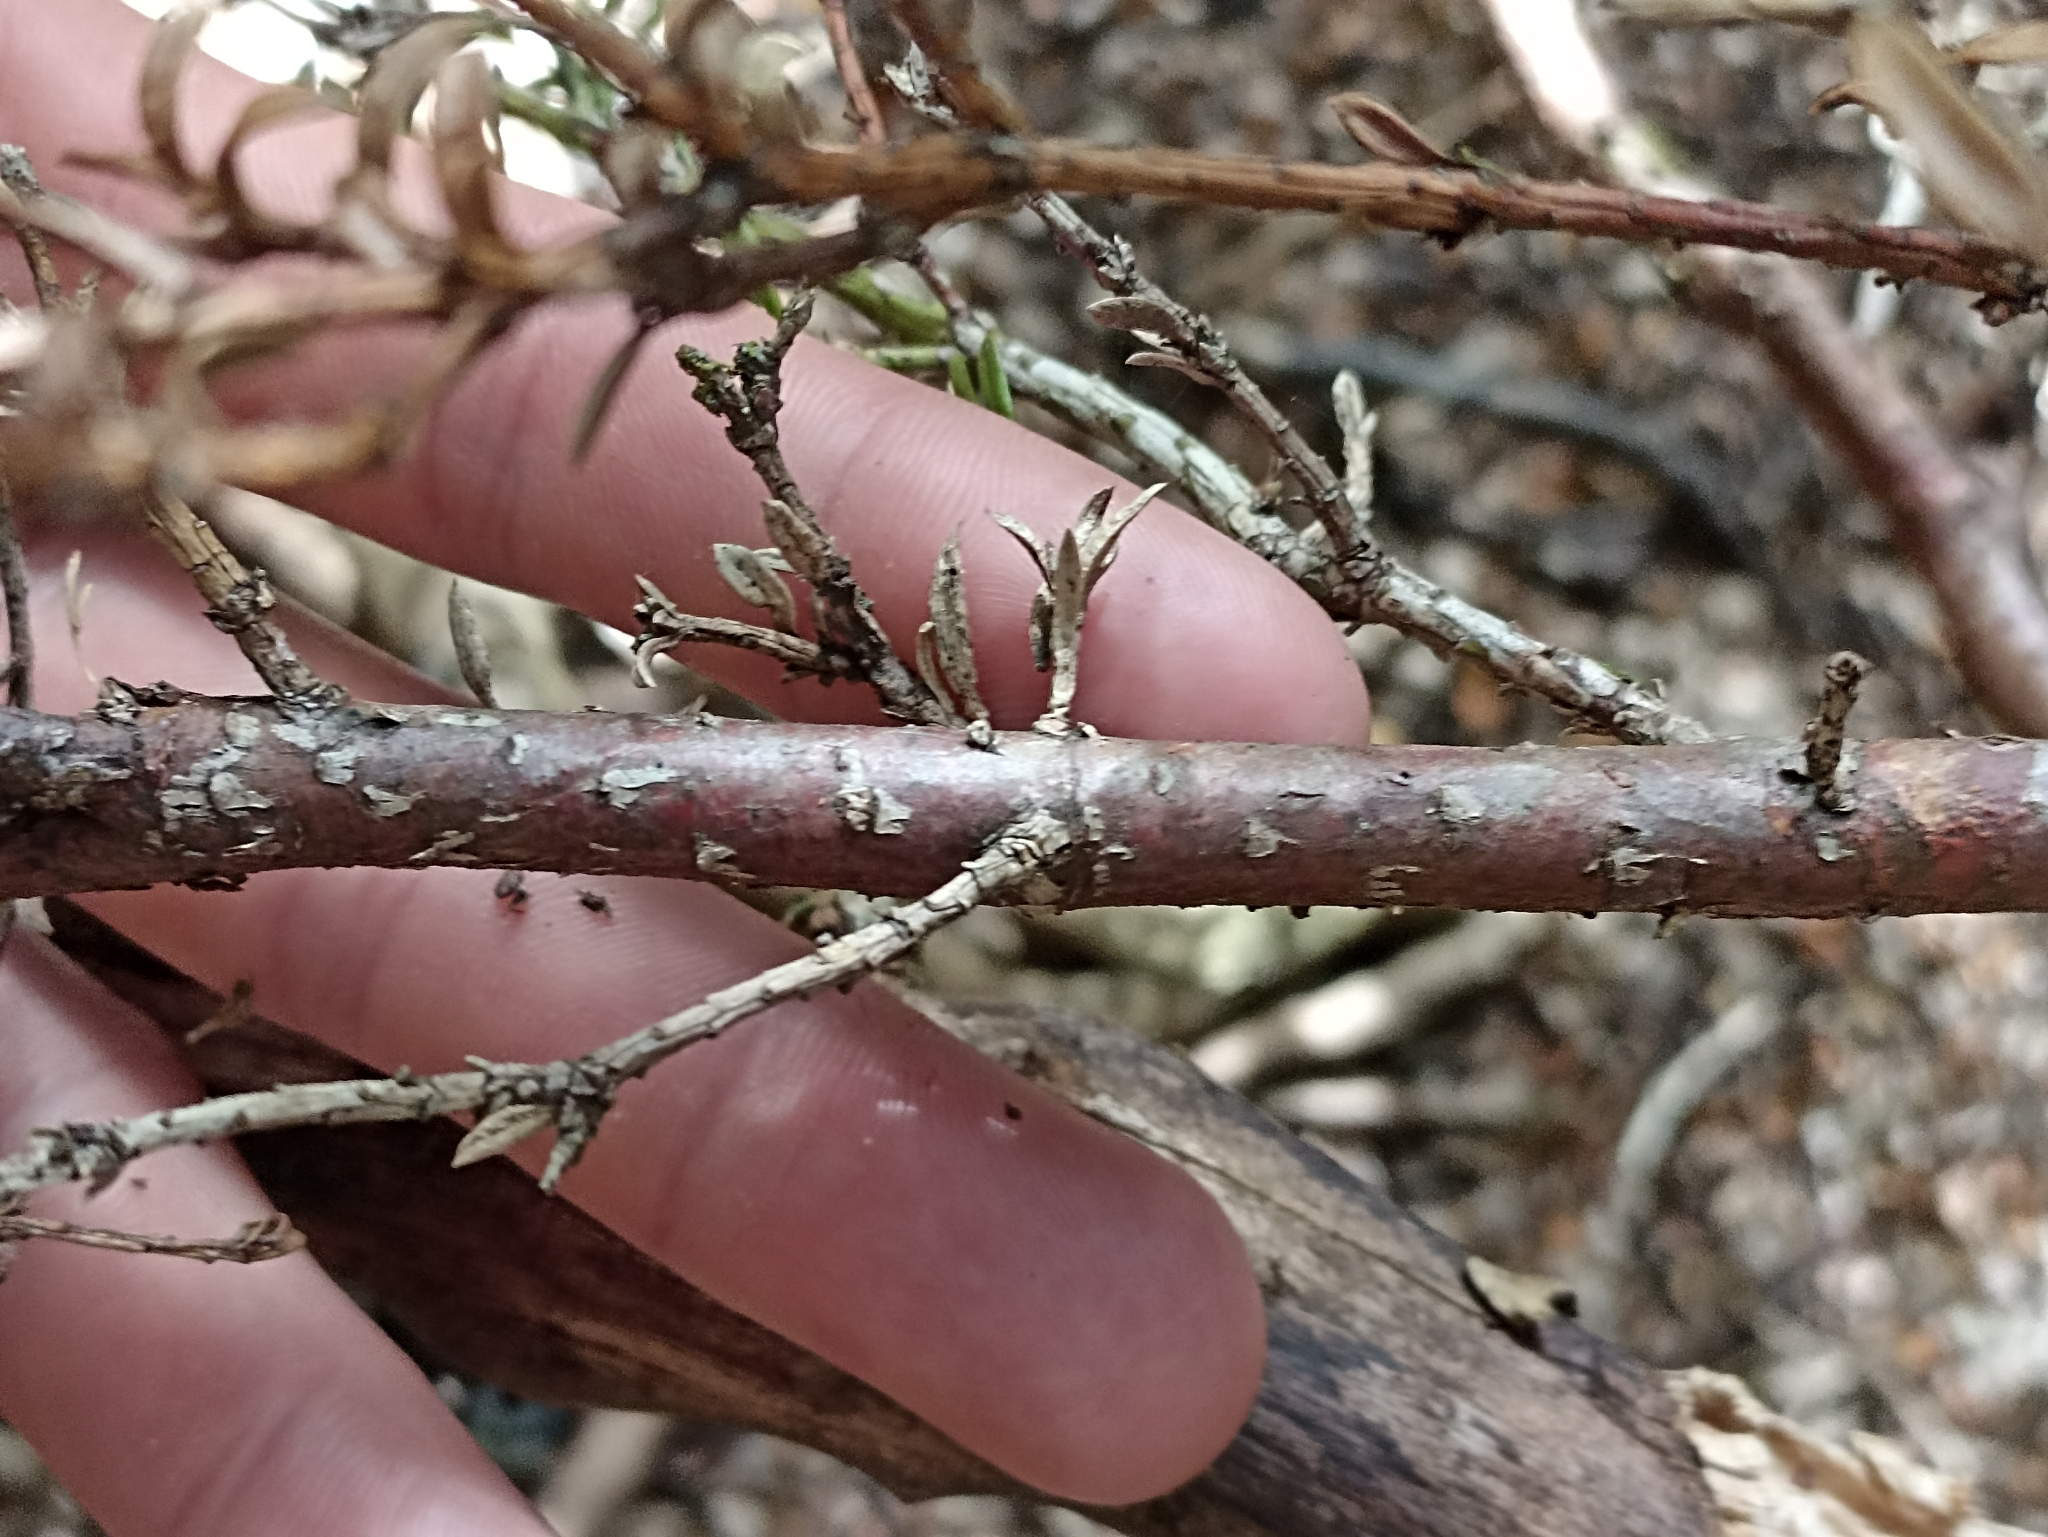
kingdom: Plantae
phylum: Tracheophyta
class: Magnoliopsida
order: Ericales
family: Ericaceae
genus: Archeria
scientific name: Archeria traversii
